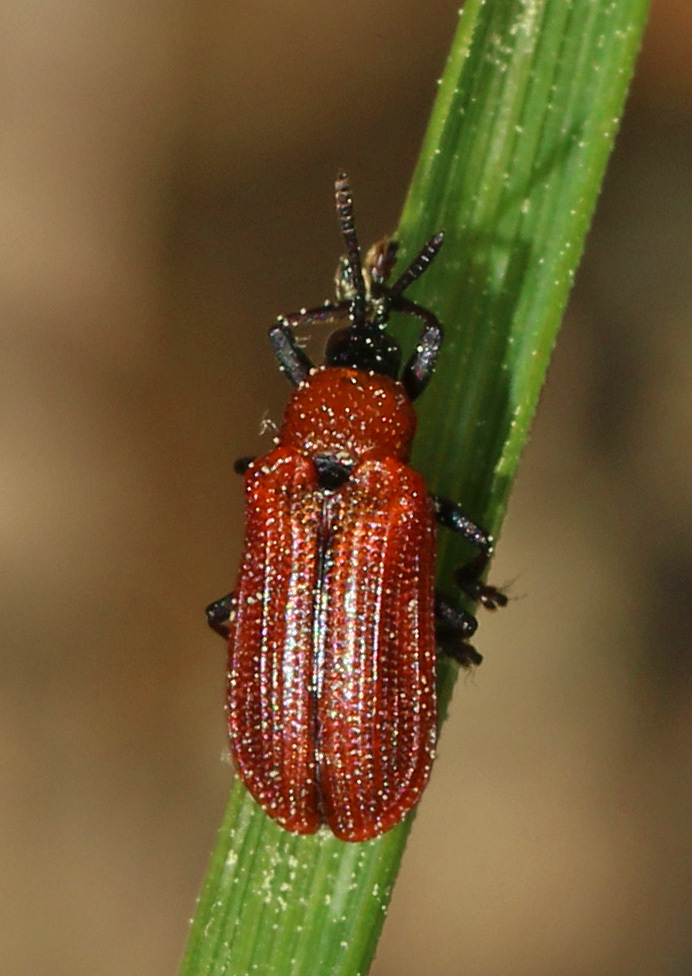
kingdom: Animalia
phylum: Arthropoda
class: Insecta
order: Coleoptera
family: Chrysomelidae
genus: Odontota
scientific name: Odontota horni
